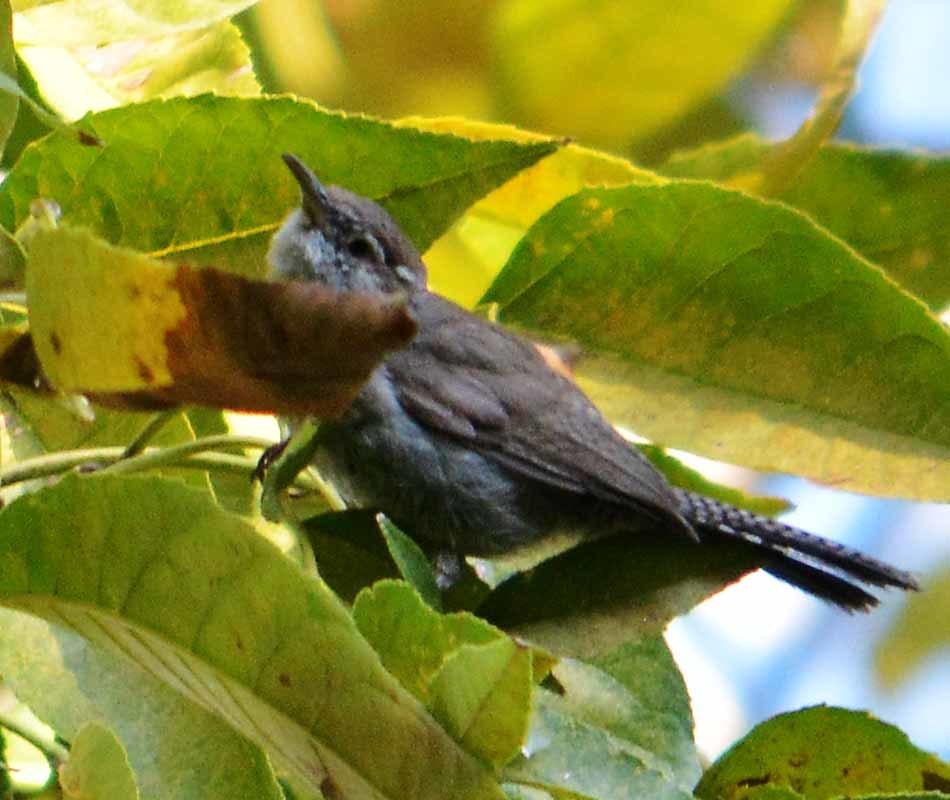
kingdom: Animalia
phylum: Chordata
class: Aves
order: Passeriformes
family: Troglodytidae
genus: Thryomanes
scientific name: Thryomanes bewickii
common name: Bewick's wren
